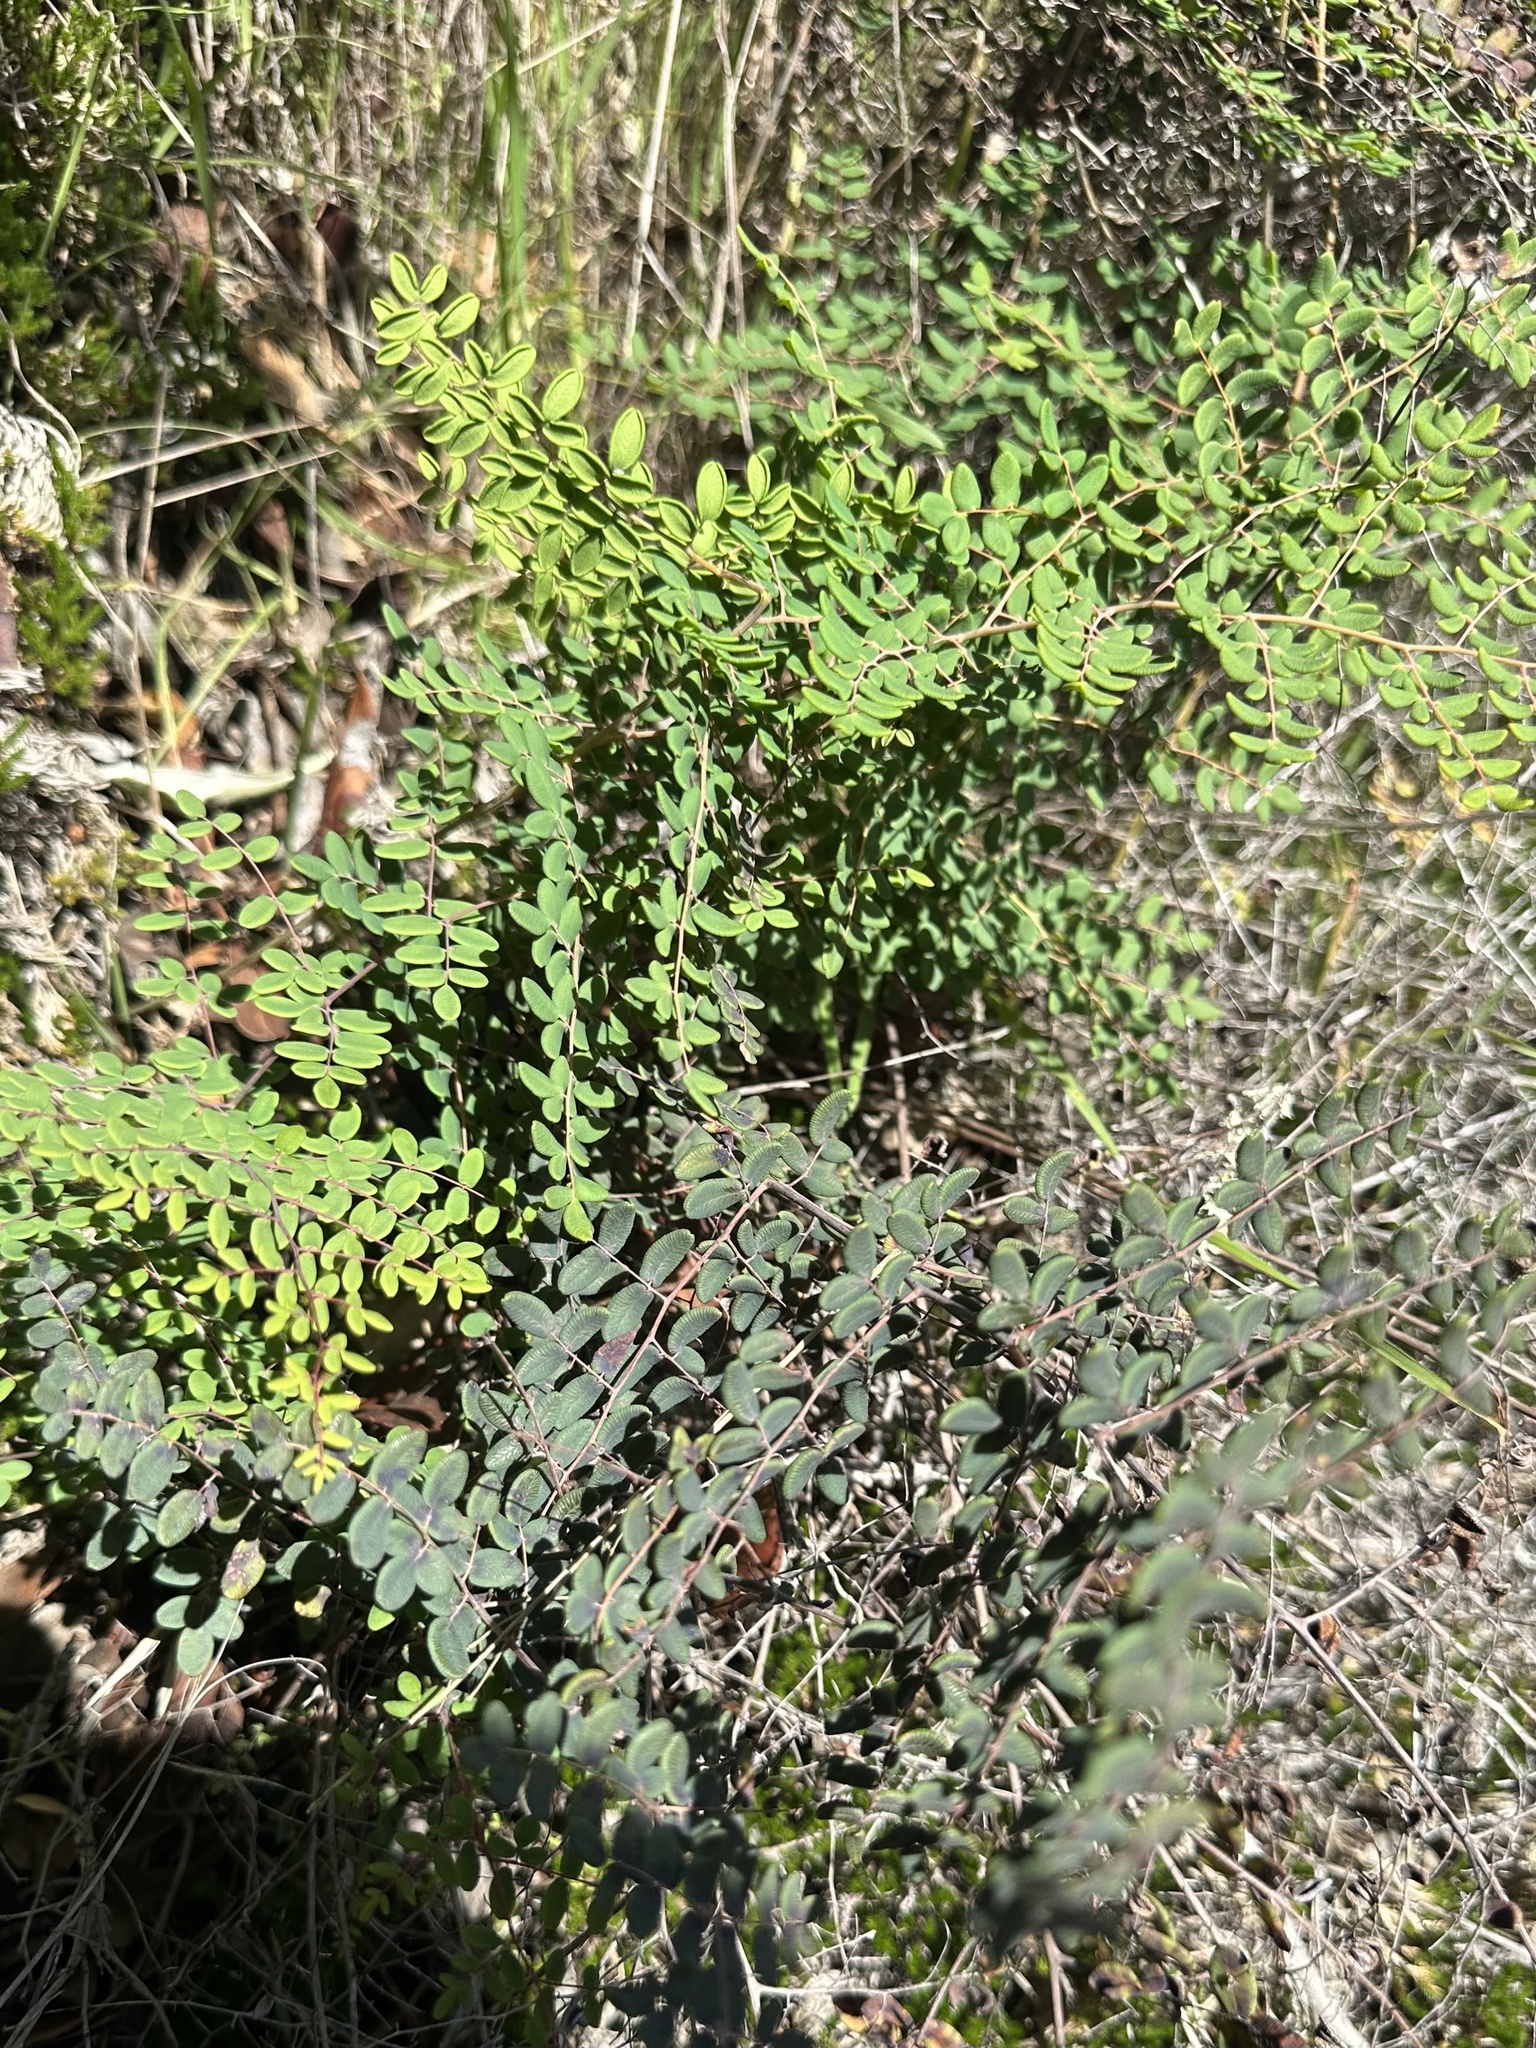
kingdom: Plantae
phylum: Tracheophyta
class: Polypodiopsida
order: Polypodiales
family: Pteridaceae
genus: Pellaea
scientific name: Pellaea andromedifolia
